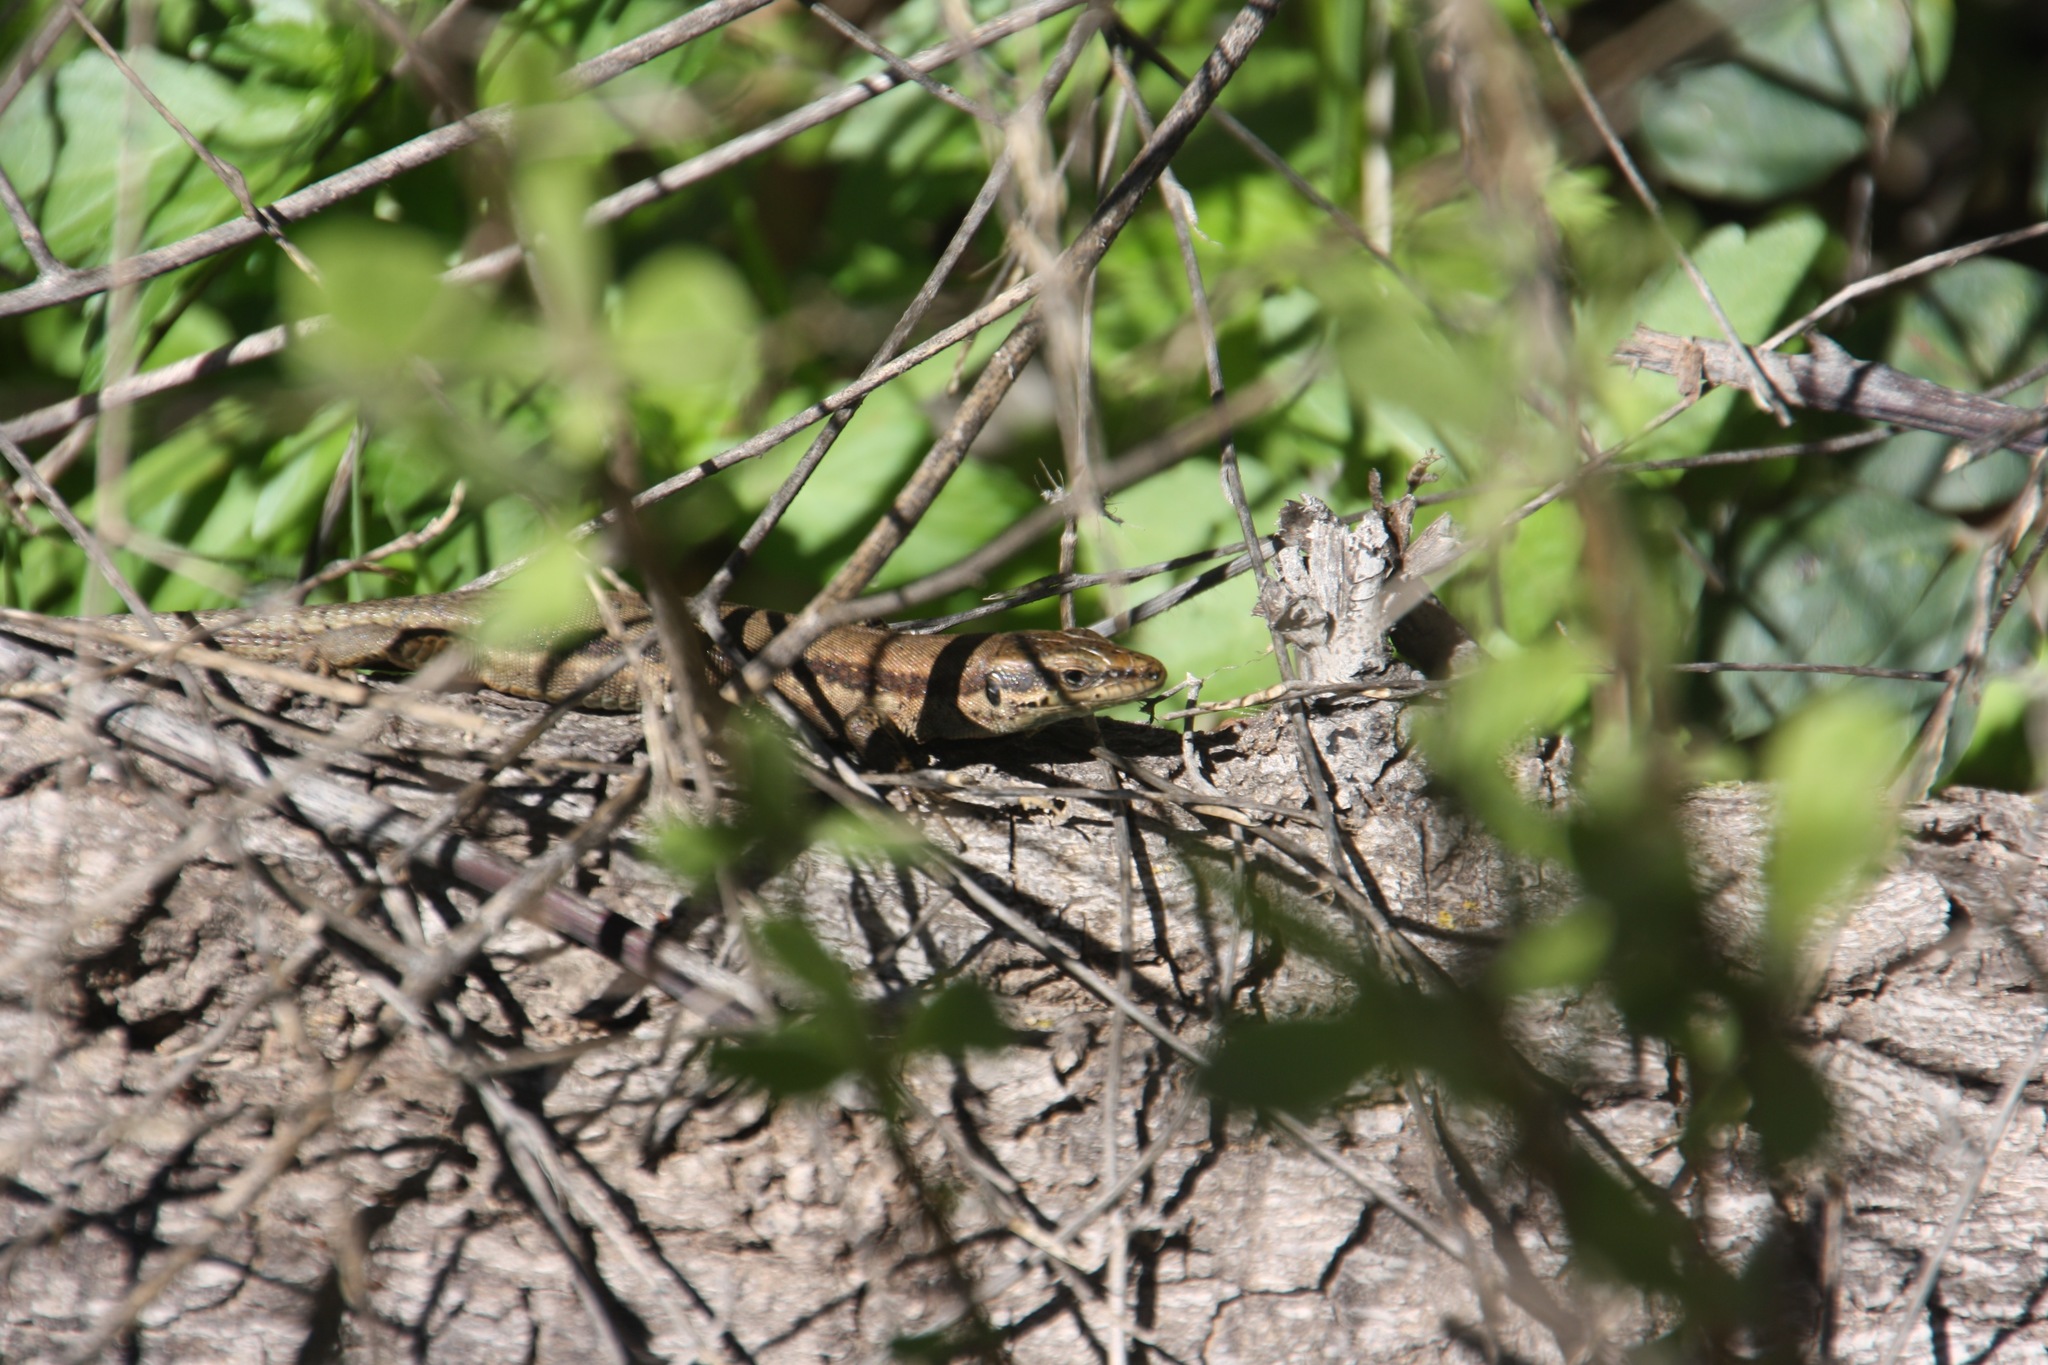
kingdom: Animalia
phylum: Chordata
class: Squamata
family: Lacertidae
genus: Phoenicolacerta
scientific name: Phoenicolacerta troodica
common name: Troodos wall lizard
